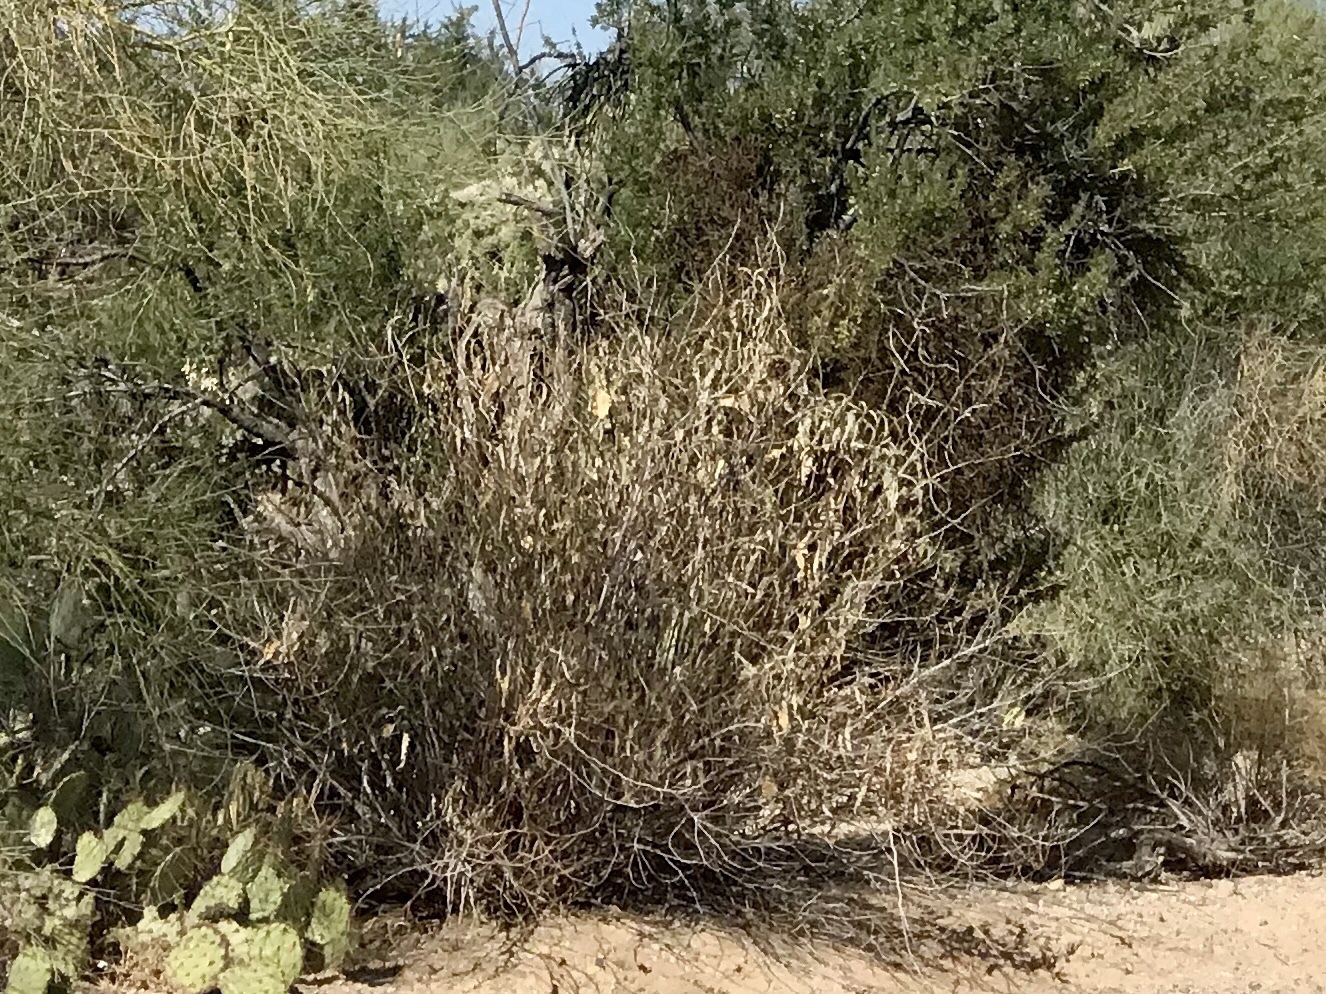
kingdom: Plantae
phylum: Tracheophyta
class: Magnoliopsida
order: Asterales
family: Asteraceae
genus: Ambrosia
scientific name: Ambrosia ambrosioides
